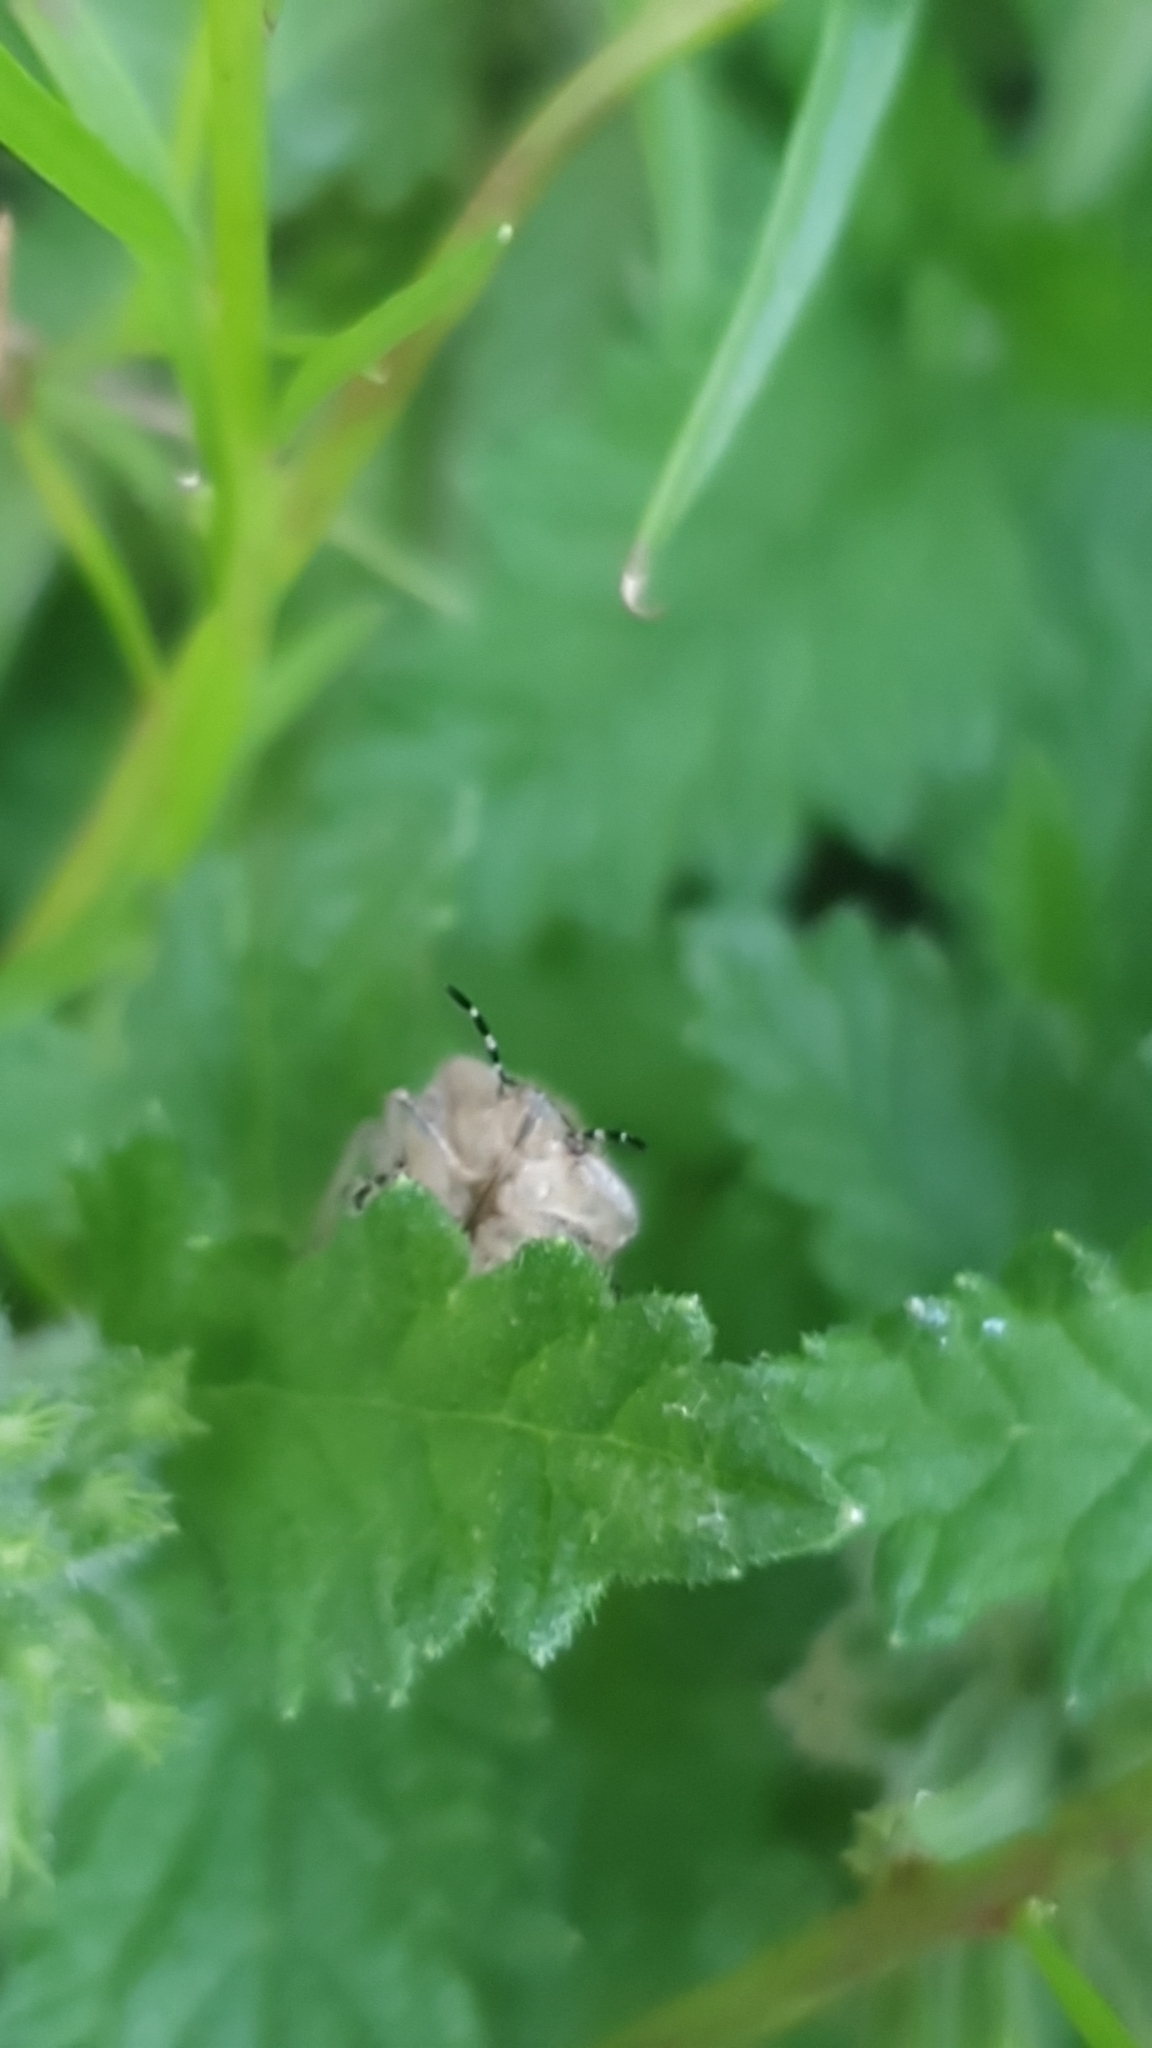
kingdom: Animalia
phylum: Arthropoda
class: Insecta
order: Hemiptera
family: Pentatomidae
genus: Dolycoris
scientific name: Dolycoris baccarum
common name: Sloe bug
